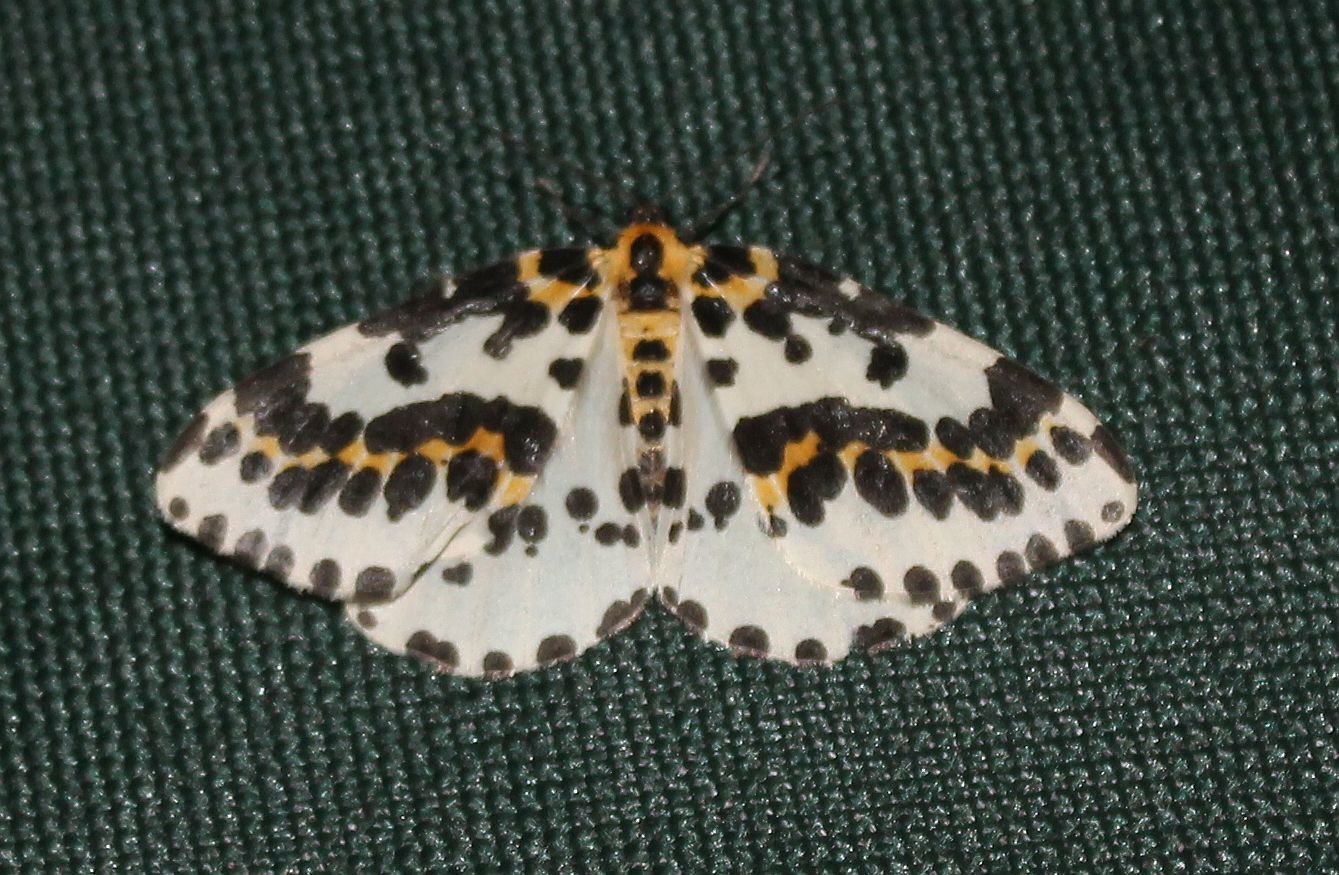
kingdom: Animalia
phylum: Arthropoda
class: Insecta
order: Lepidoptera
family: Geometridae
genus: Abraxas
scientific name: Abraxas grossulariata
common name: Magpie
